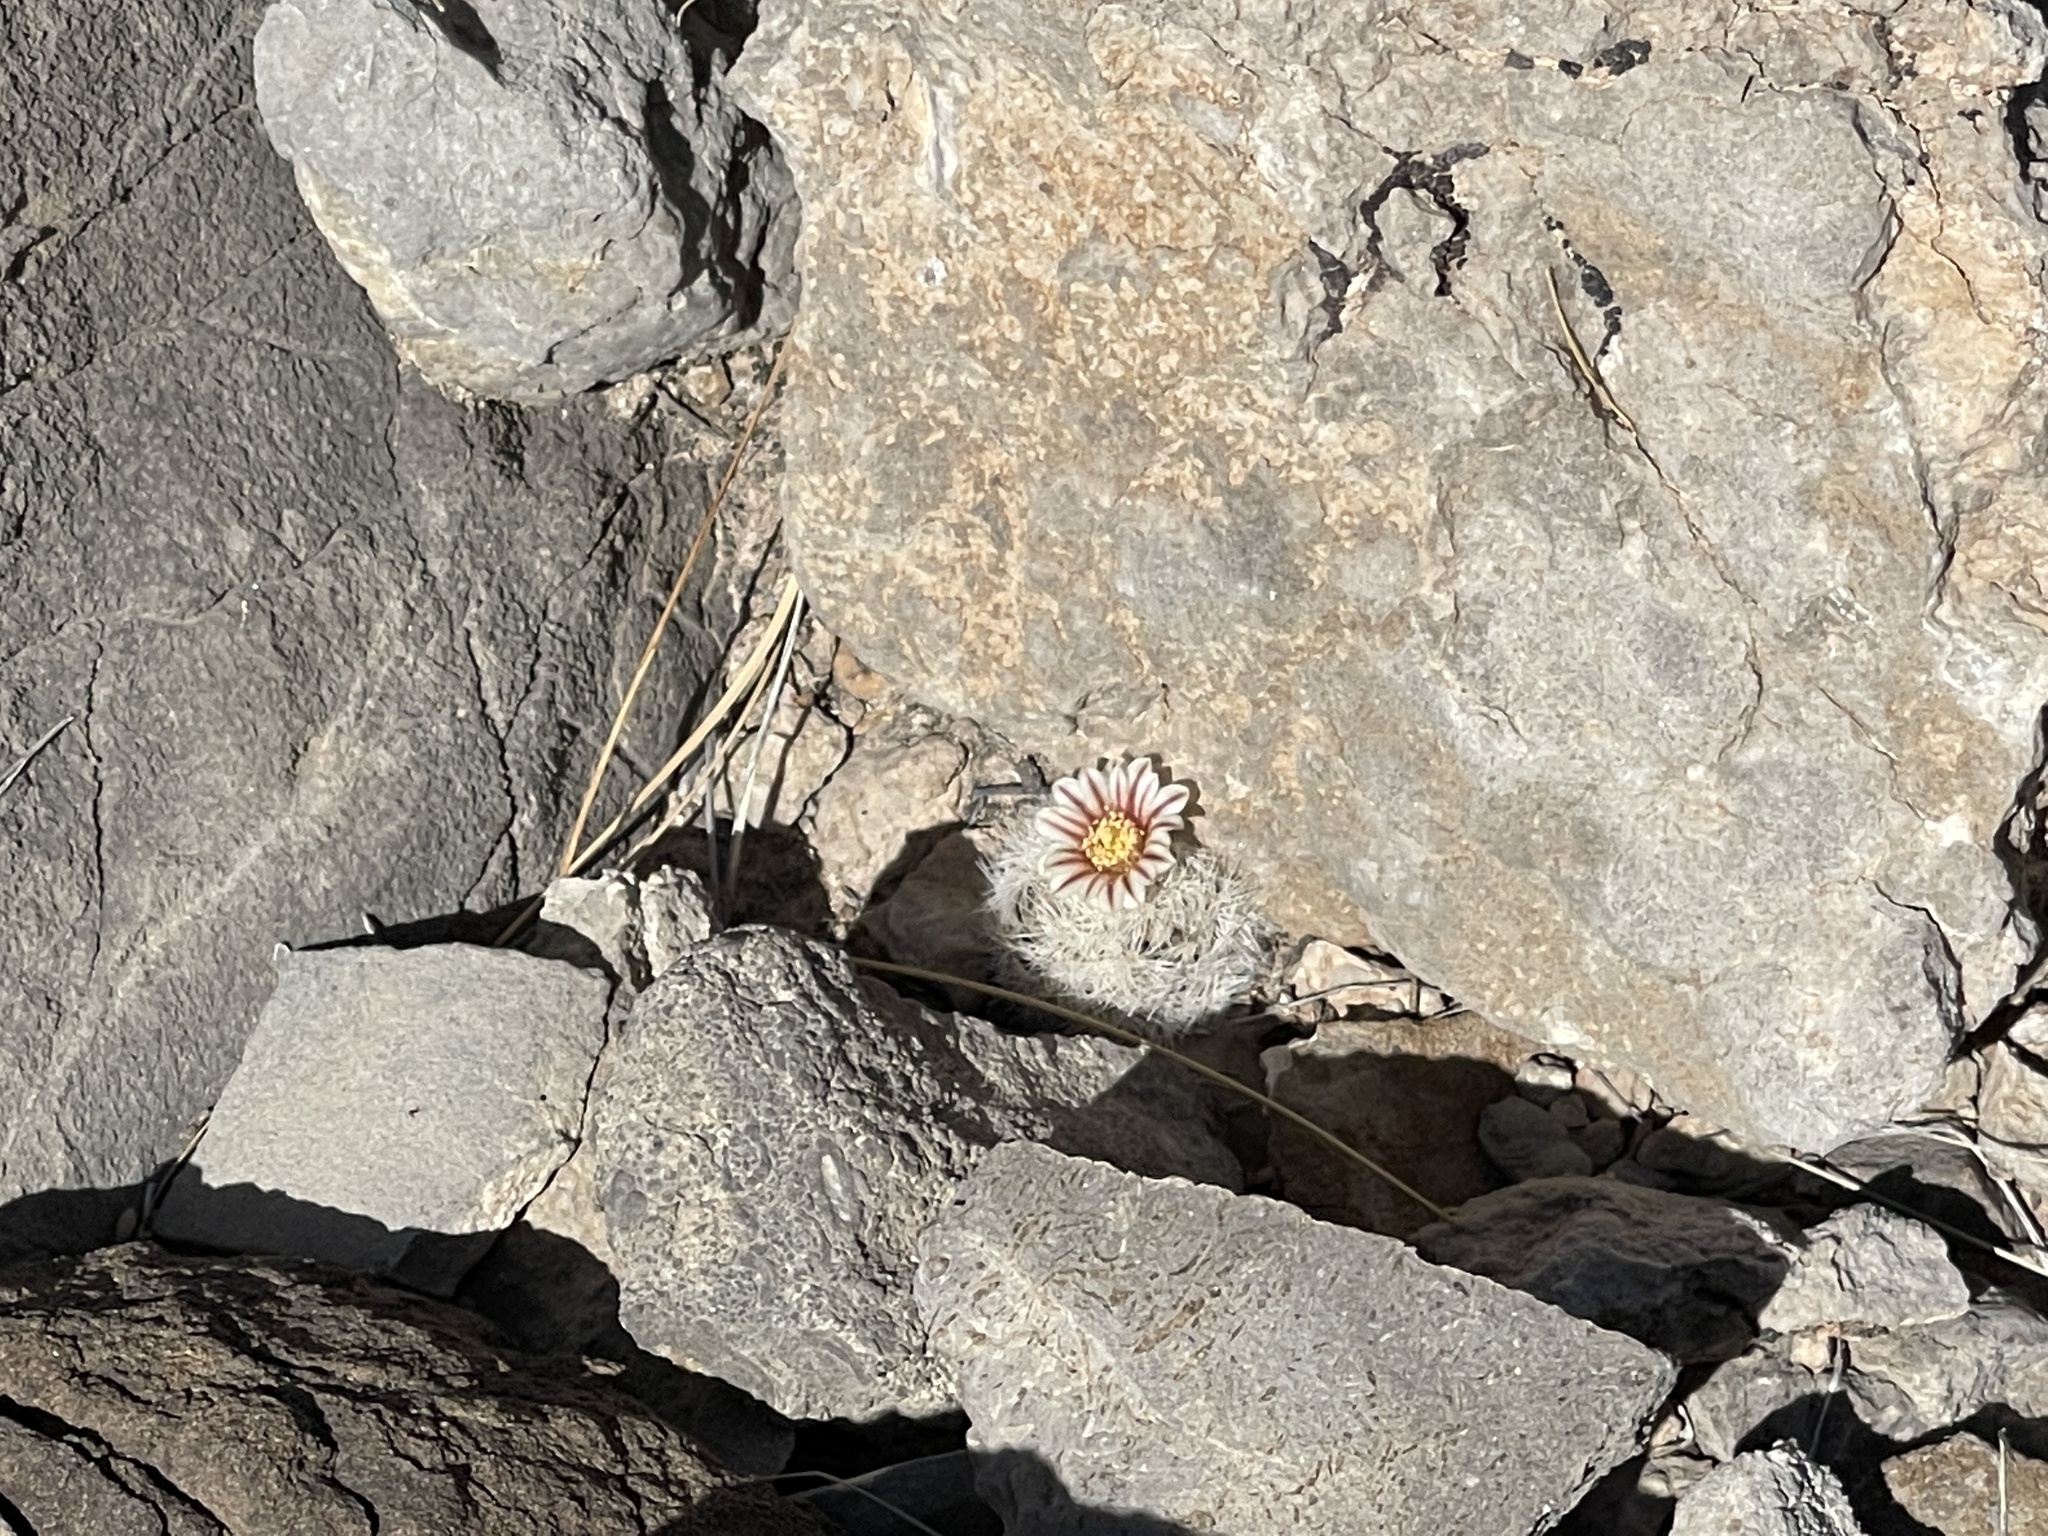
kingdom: Plantae
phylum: Tracheophyta
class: Magnoliopsida
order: Caryophyllales
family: Cactaceae
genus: Mammillaria
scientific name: Mammillaria lasiacantha
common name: Lace-spine nipple cactus
